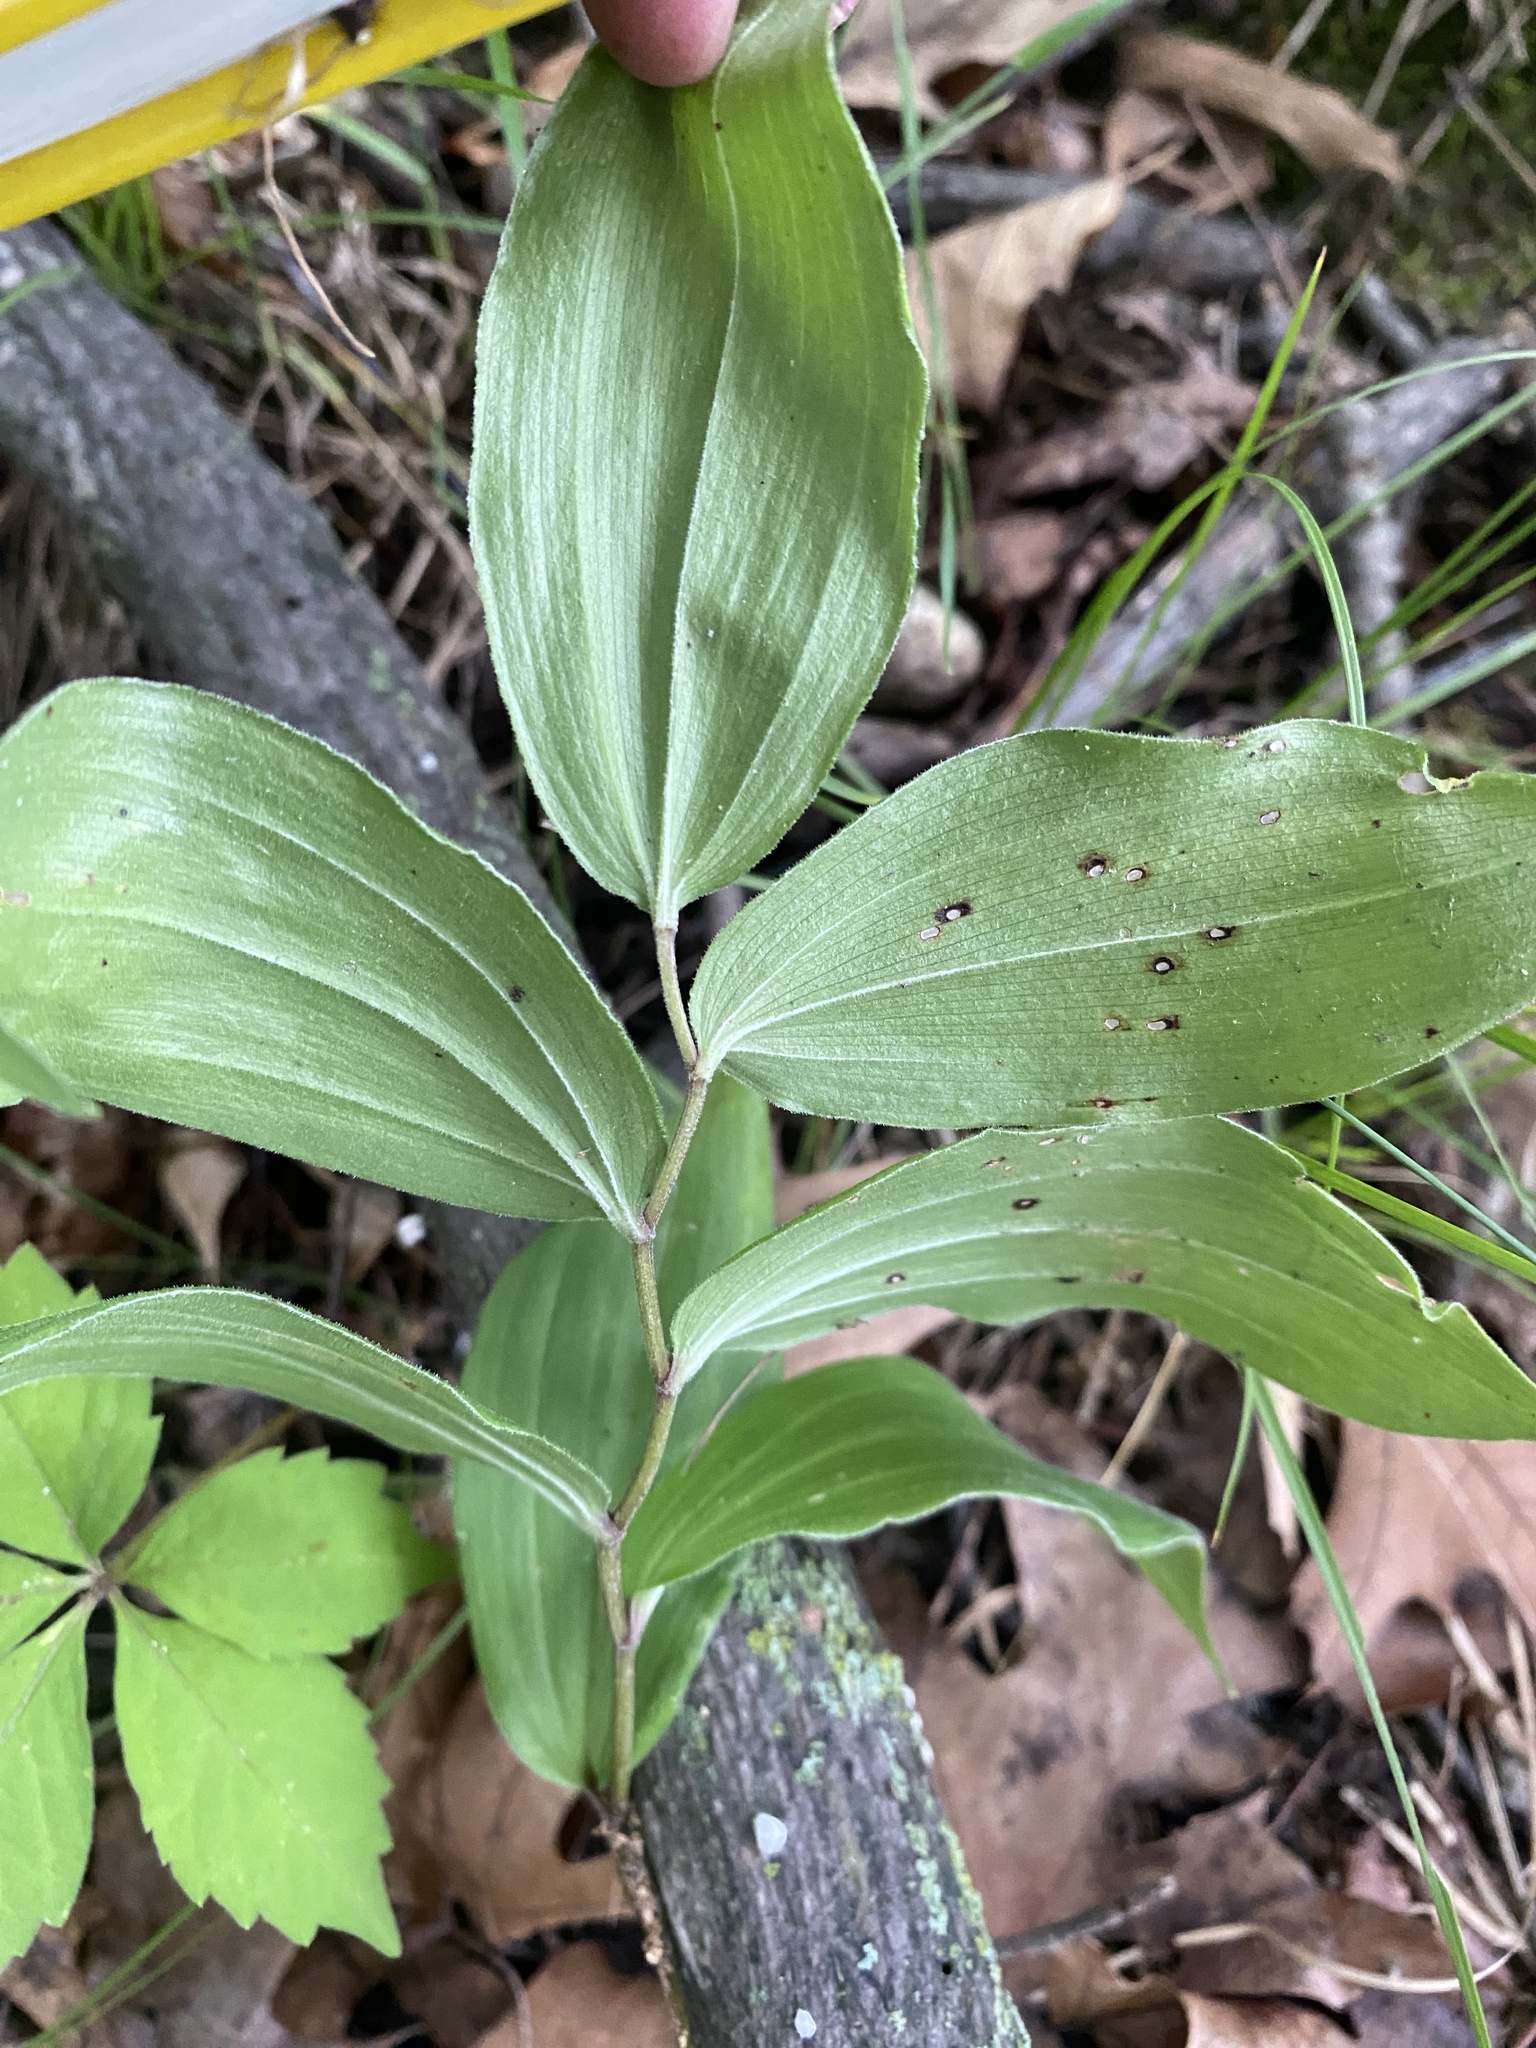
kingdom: Plantae
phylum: Tracheophyta
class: Liliopsida
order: Asparagales
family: Asparagaceae
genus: Maianthemum
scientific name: Maianthemum racemosum
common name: False spikenard
